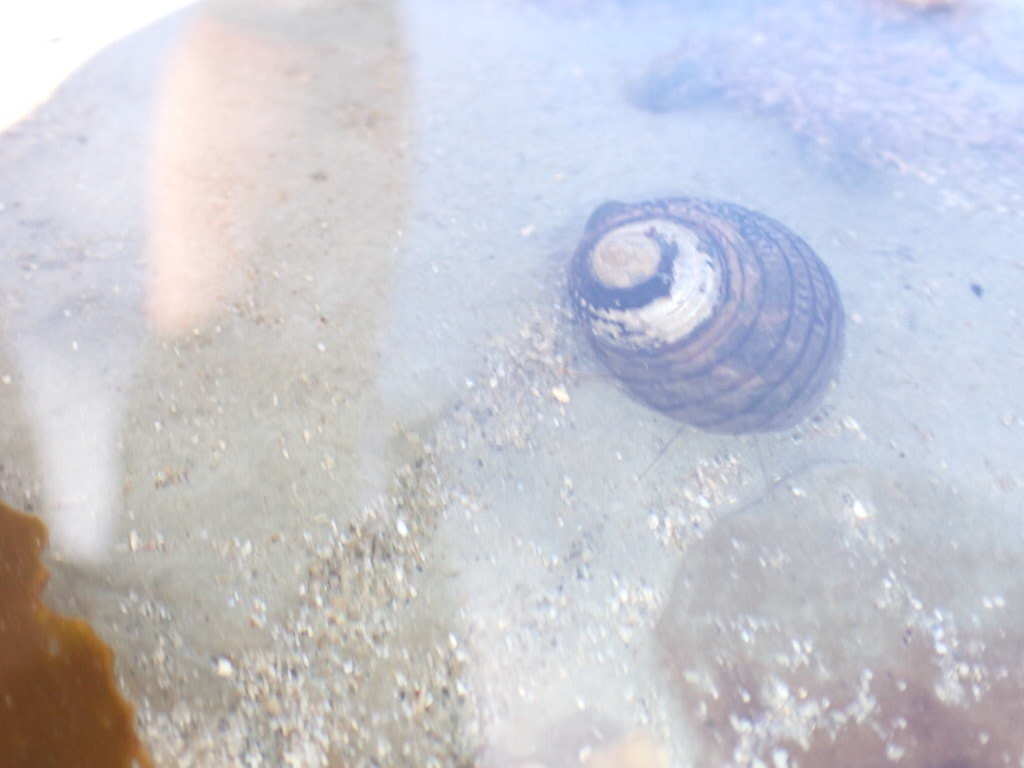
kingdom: Animalia
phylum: Mollusca
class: Gastropoda
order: Trochida
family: Trochidae
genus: Diloma
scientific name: Diloma aethiops
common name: Scorched monodont
